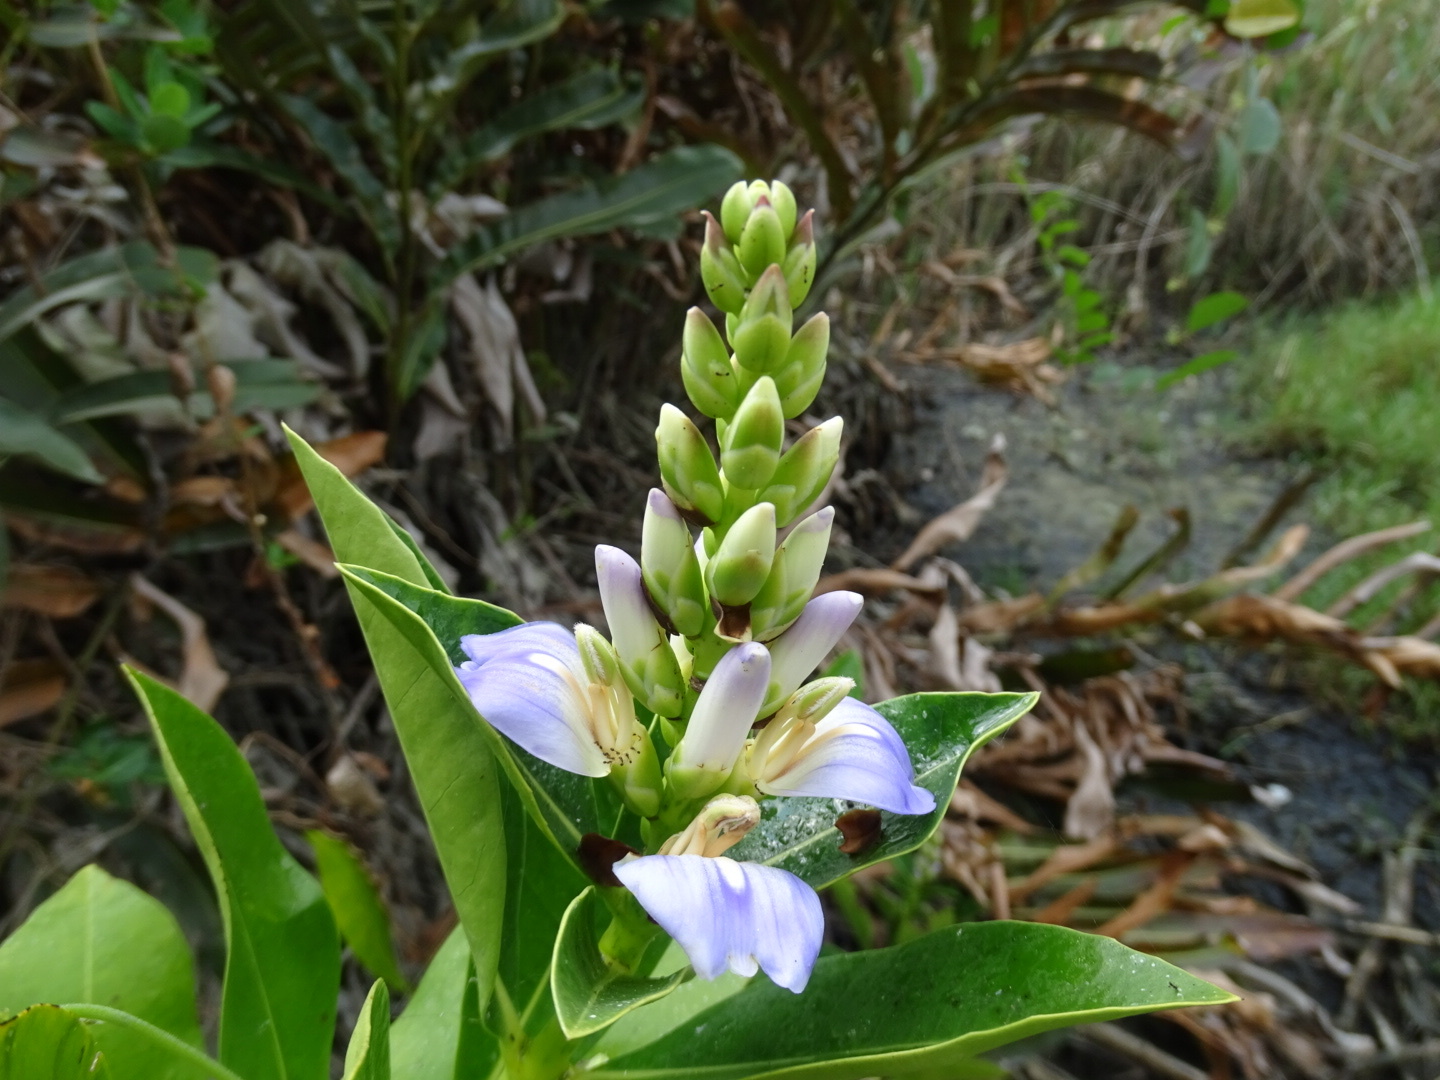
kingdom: Plantae
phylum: Tracheophyta
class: Magnoliopsida
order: Lamiales
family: Acanthaceae
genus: Acanthus
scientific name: Acanthus ilicifolius
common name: Holy mangrove
